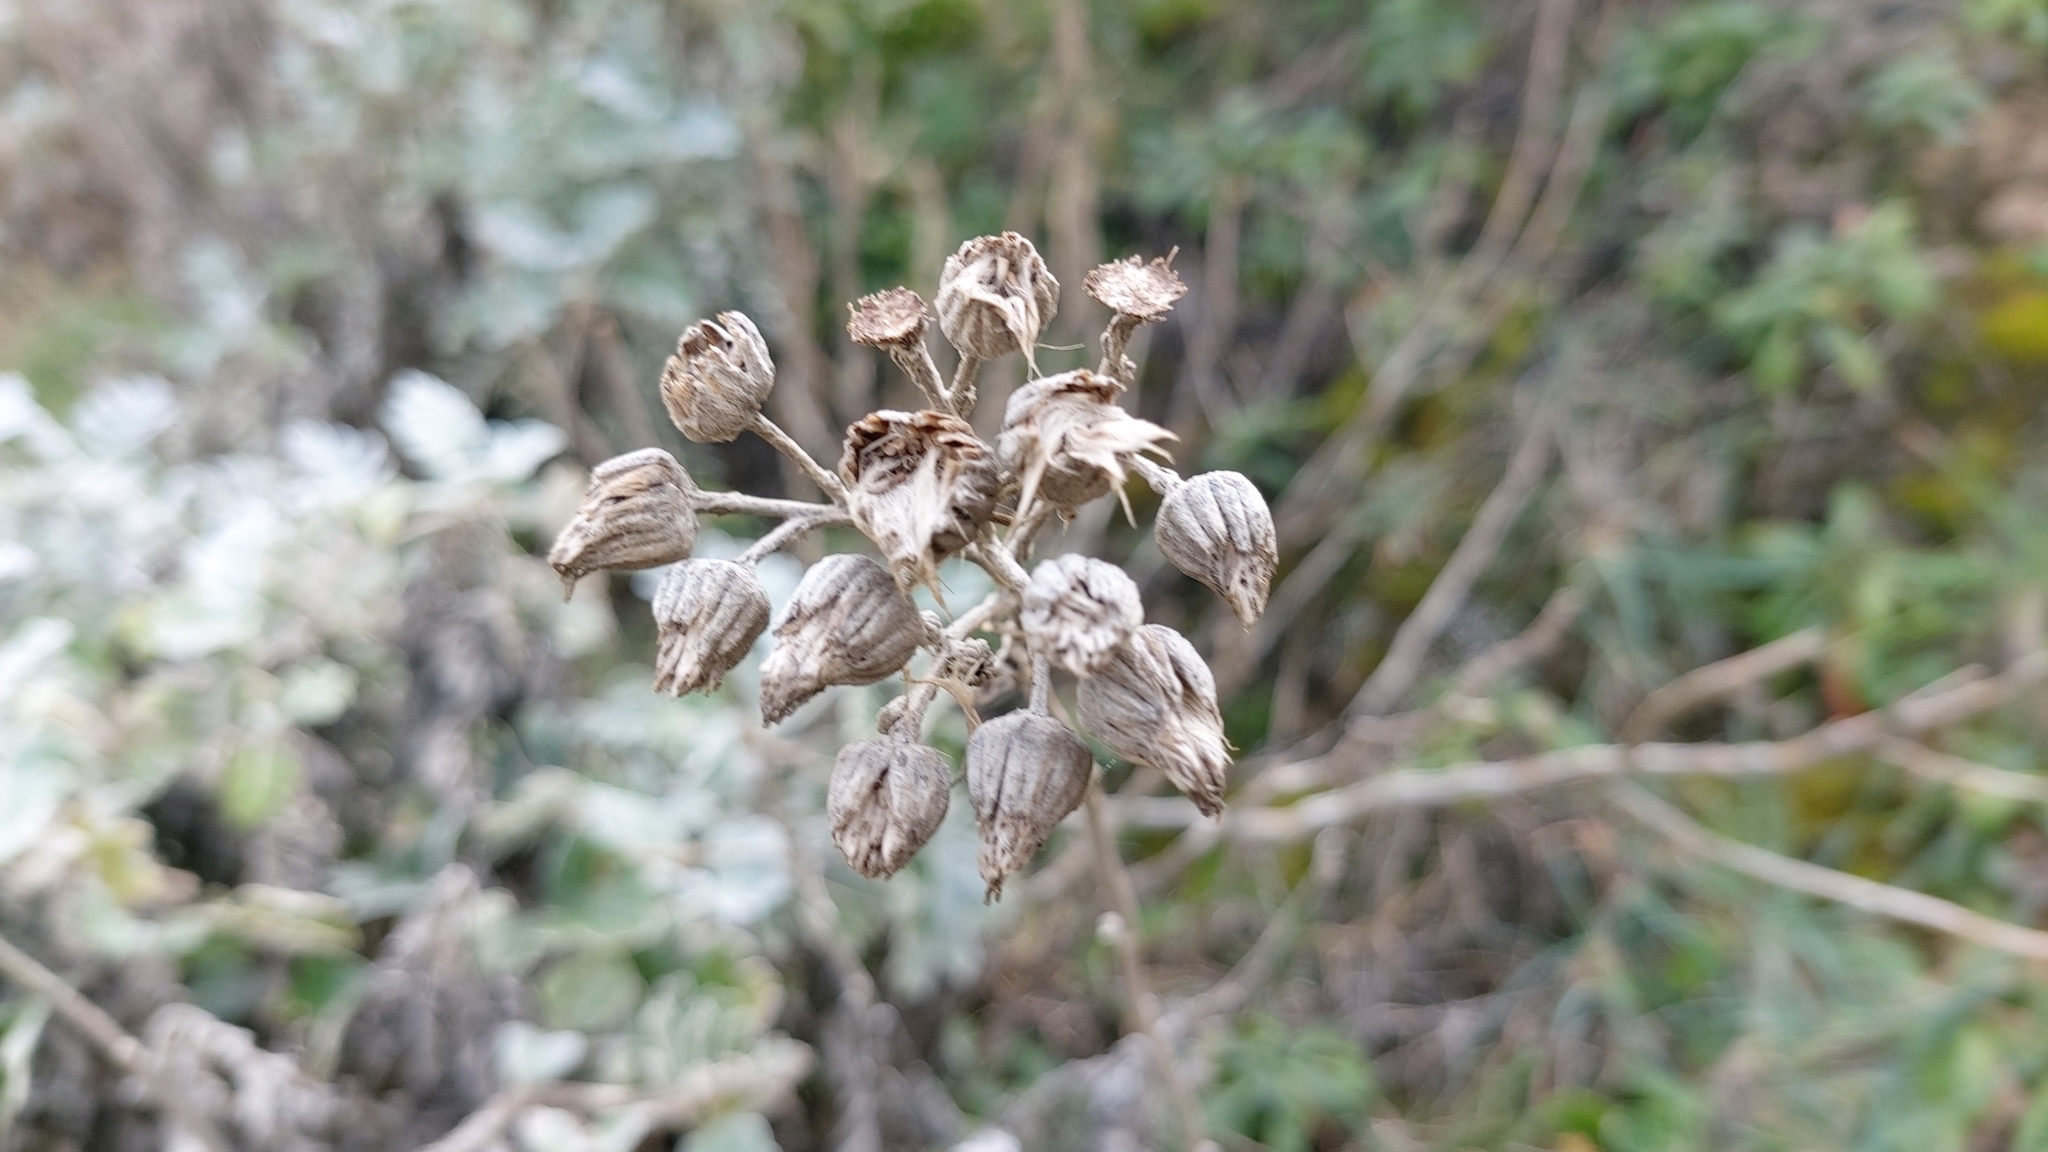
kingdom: Plantae
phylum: Tracheophyta
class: Magnoliopsida
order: Asterales
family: Asteraceae
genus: Jacobaea
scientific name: Jacobaea maritima
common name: Silver ragwort
